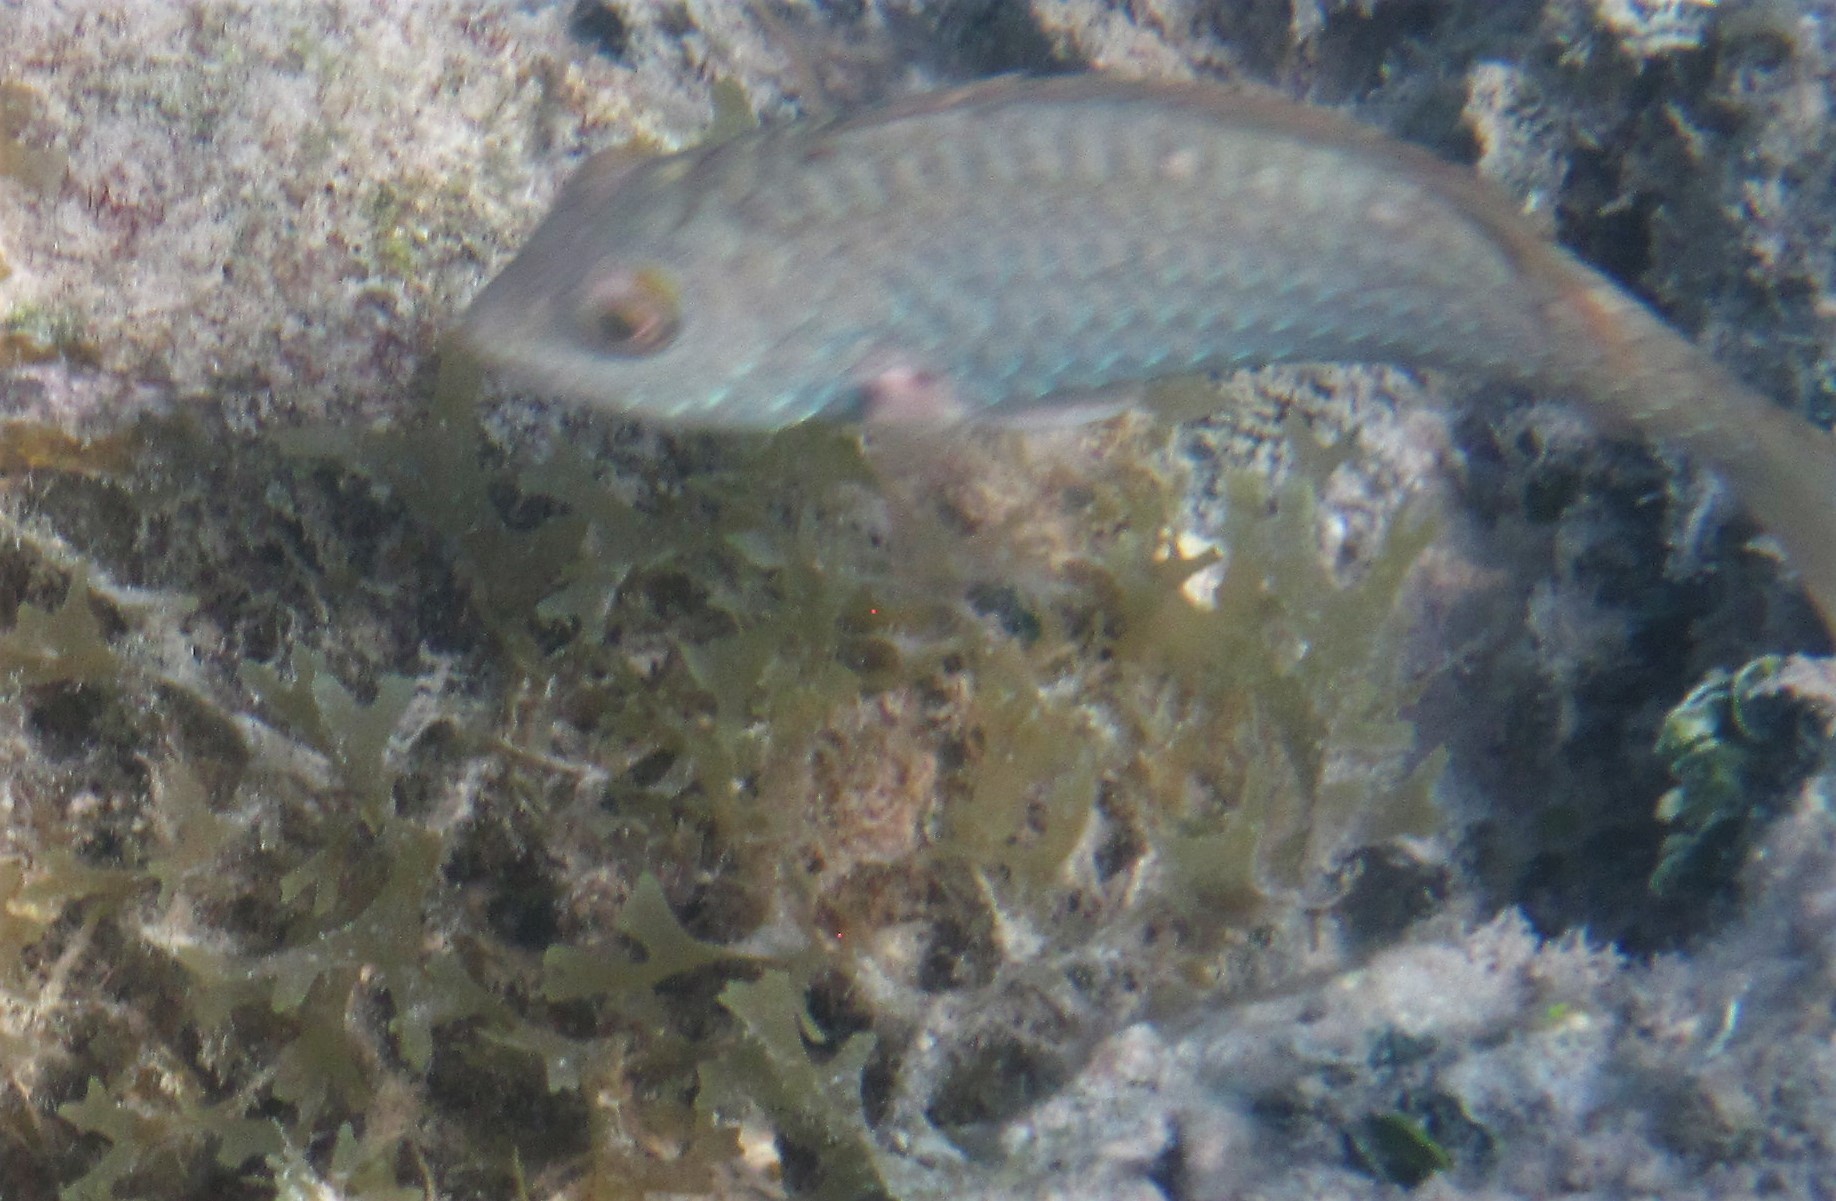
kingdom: Animalia
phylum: Chordata
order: Perciformes
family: Scaridae
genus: Sparisoma
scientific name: Sparisoma
